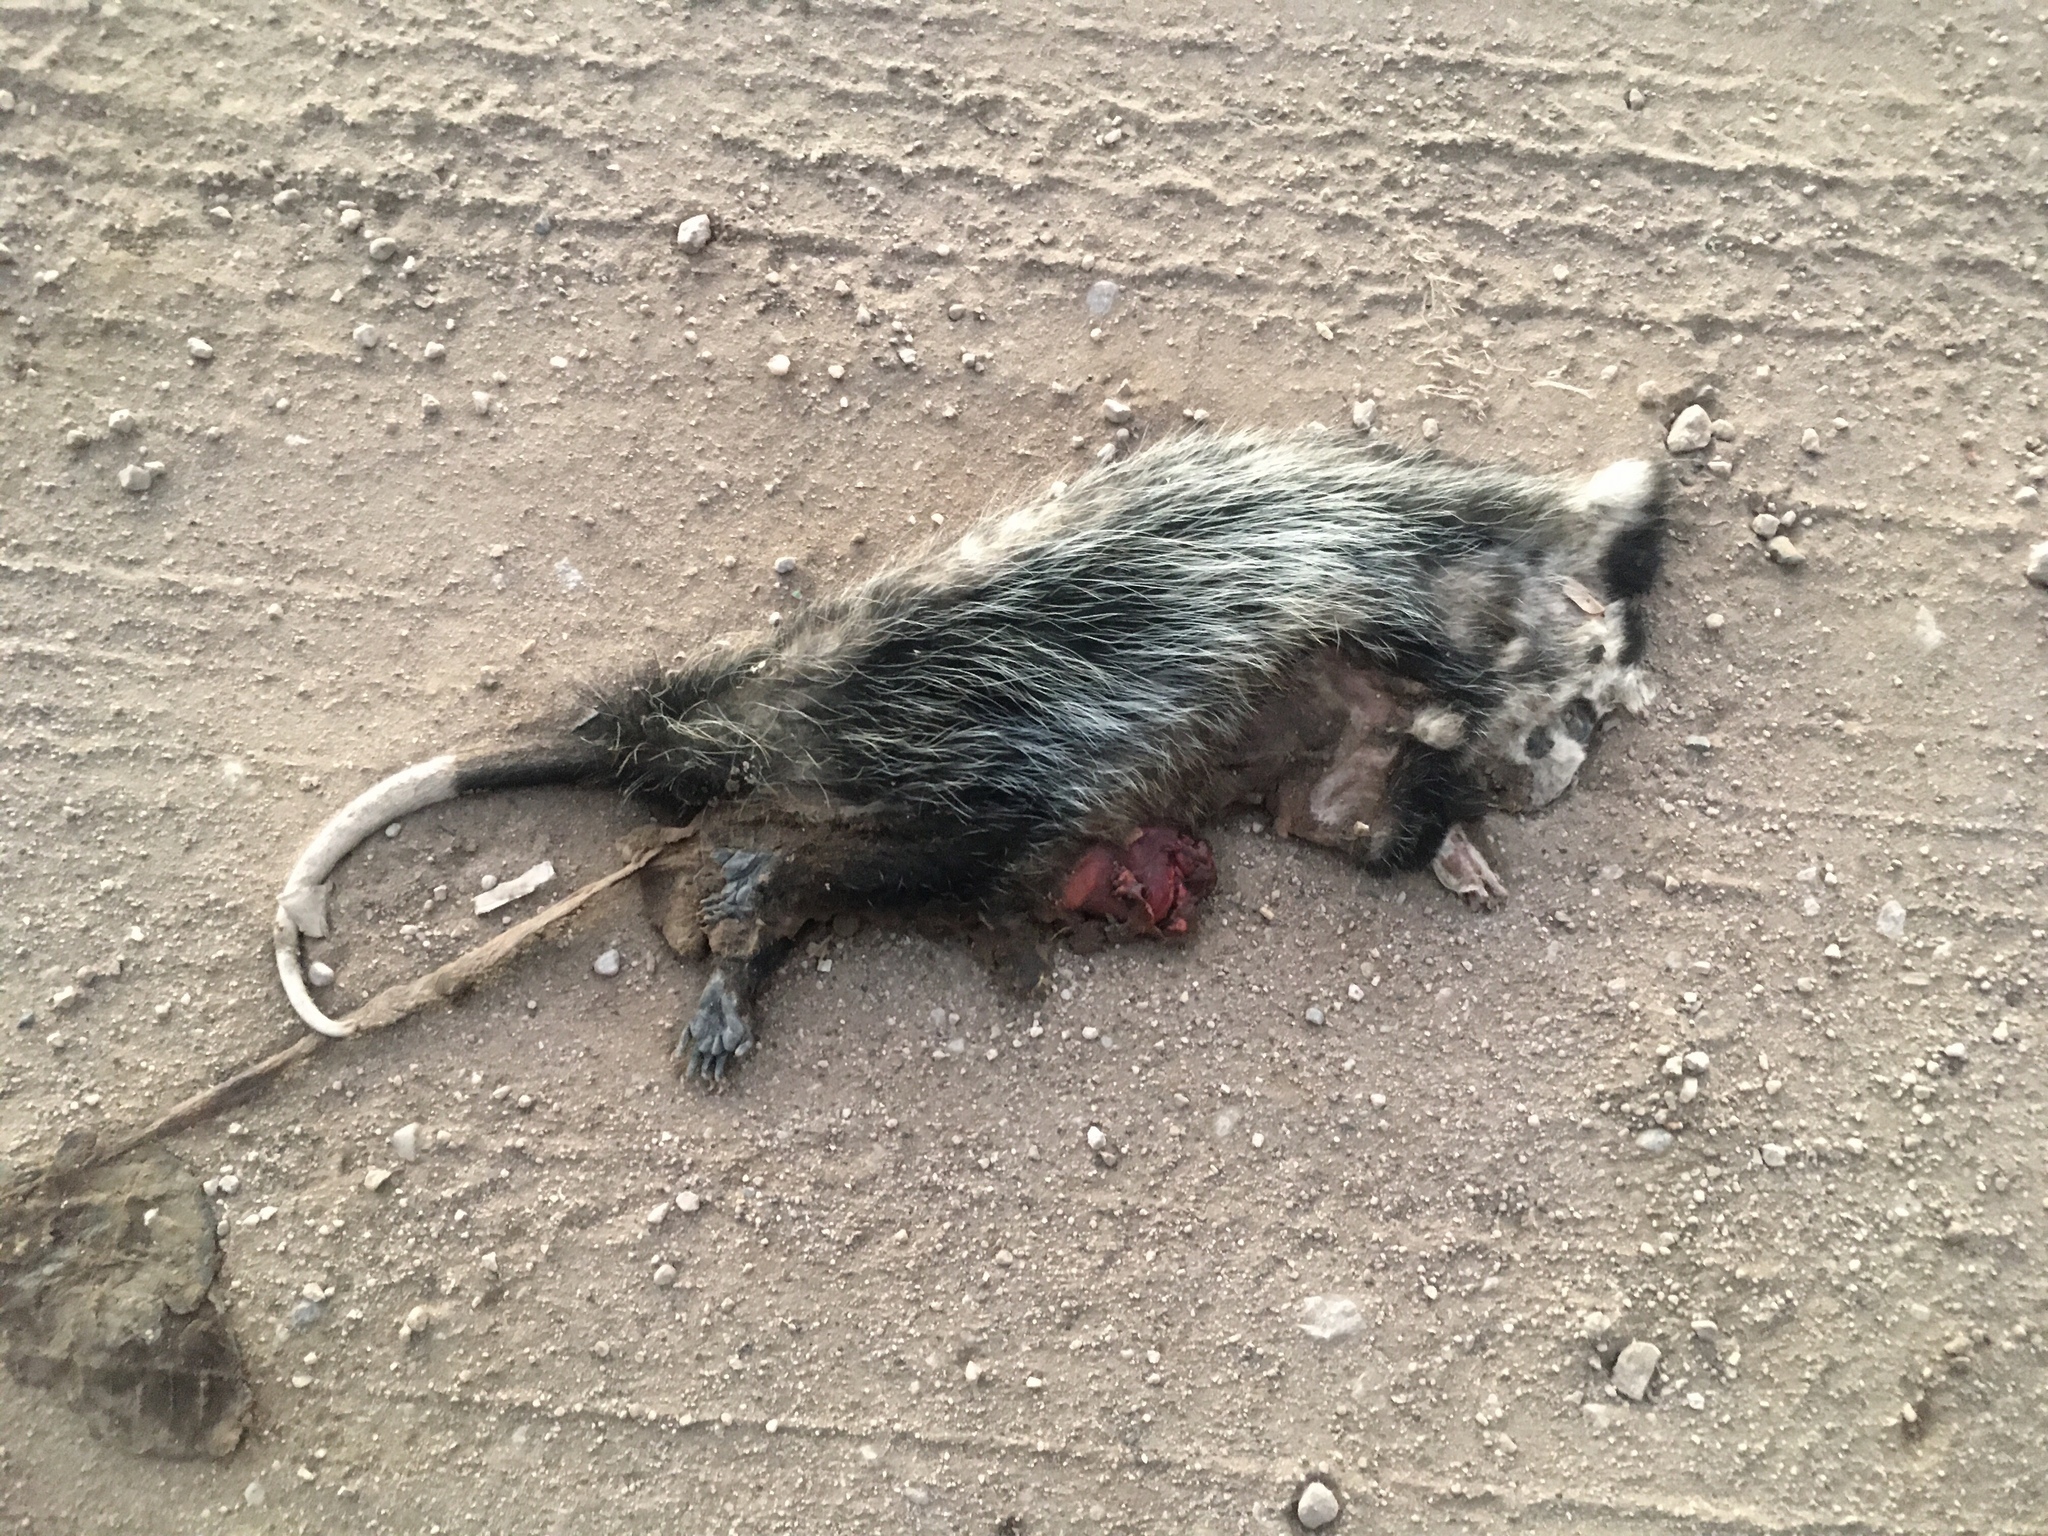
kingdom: Animalia
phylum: Chordata
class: Mammalia
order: Didelphimorphia
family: Didelphidae
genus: Didelphis
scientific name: Didelphis albiventris
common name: White-eared opossum
